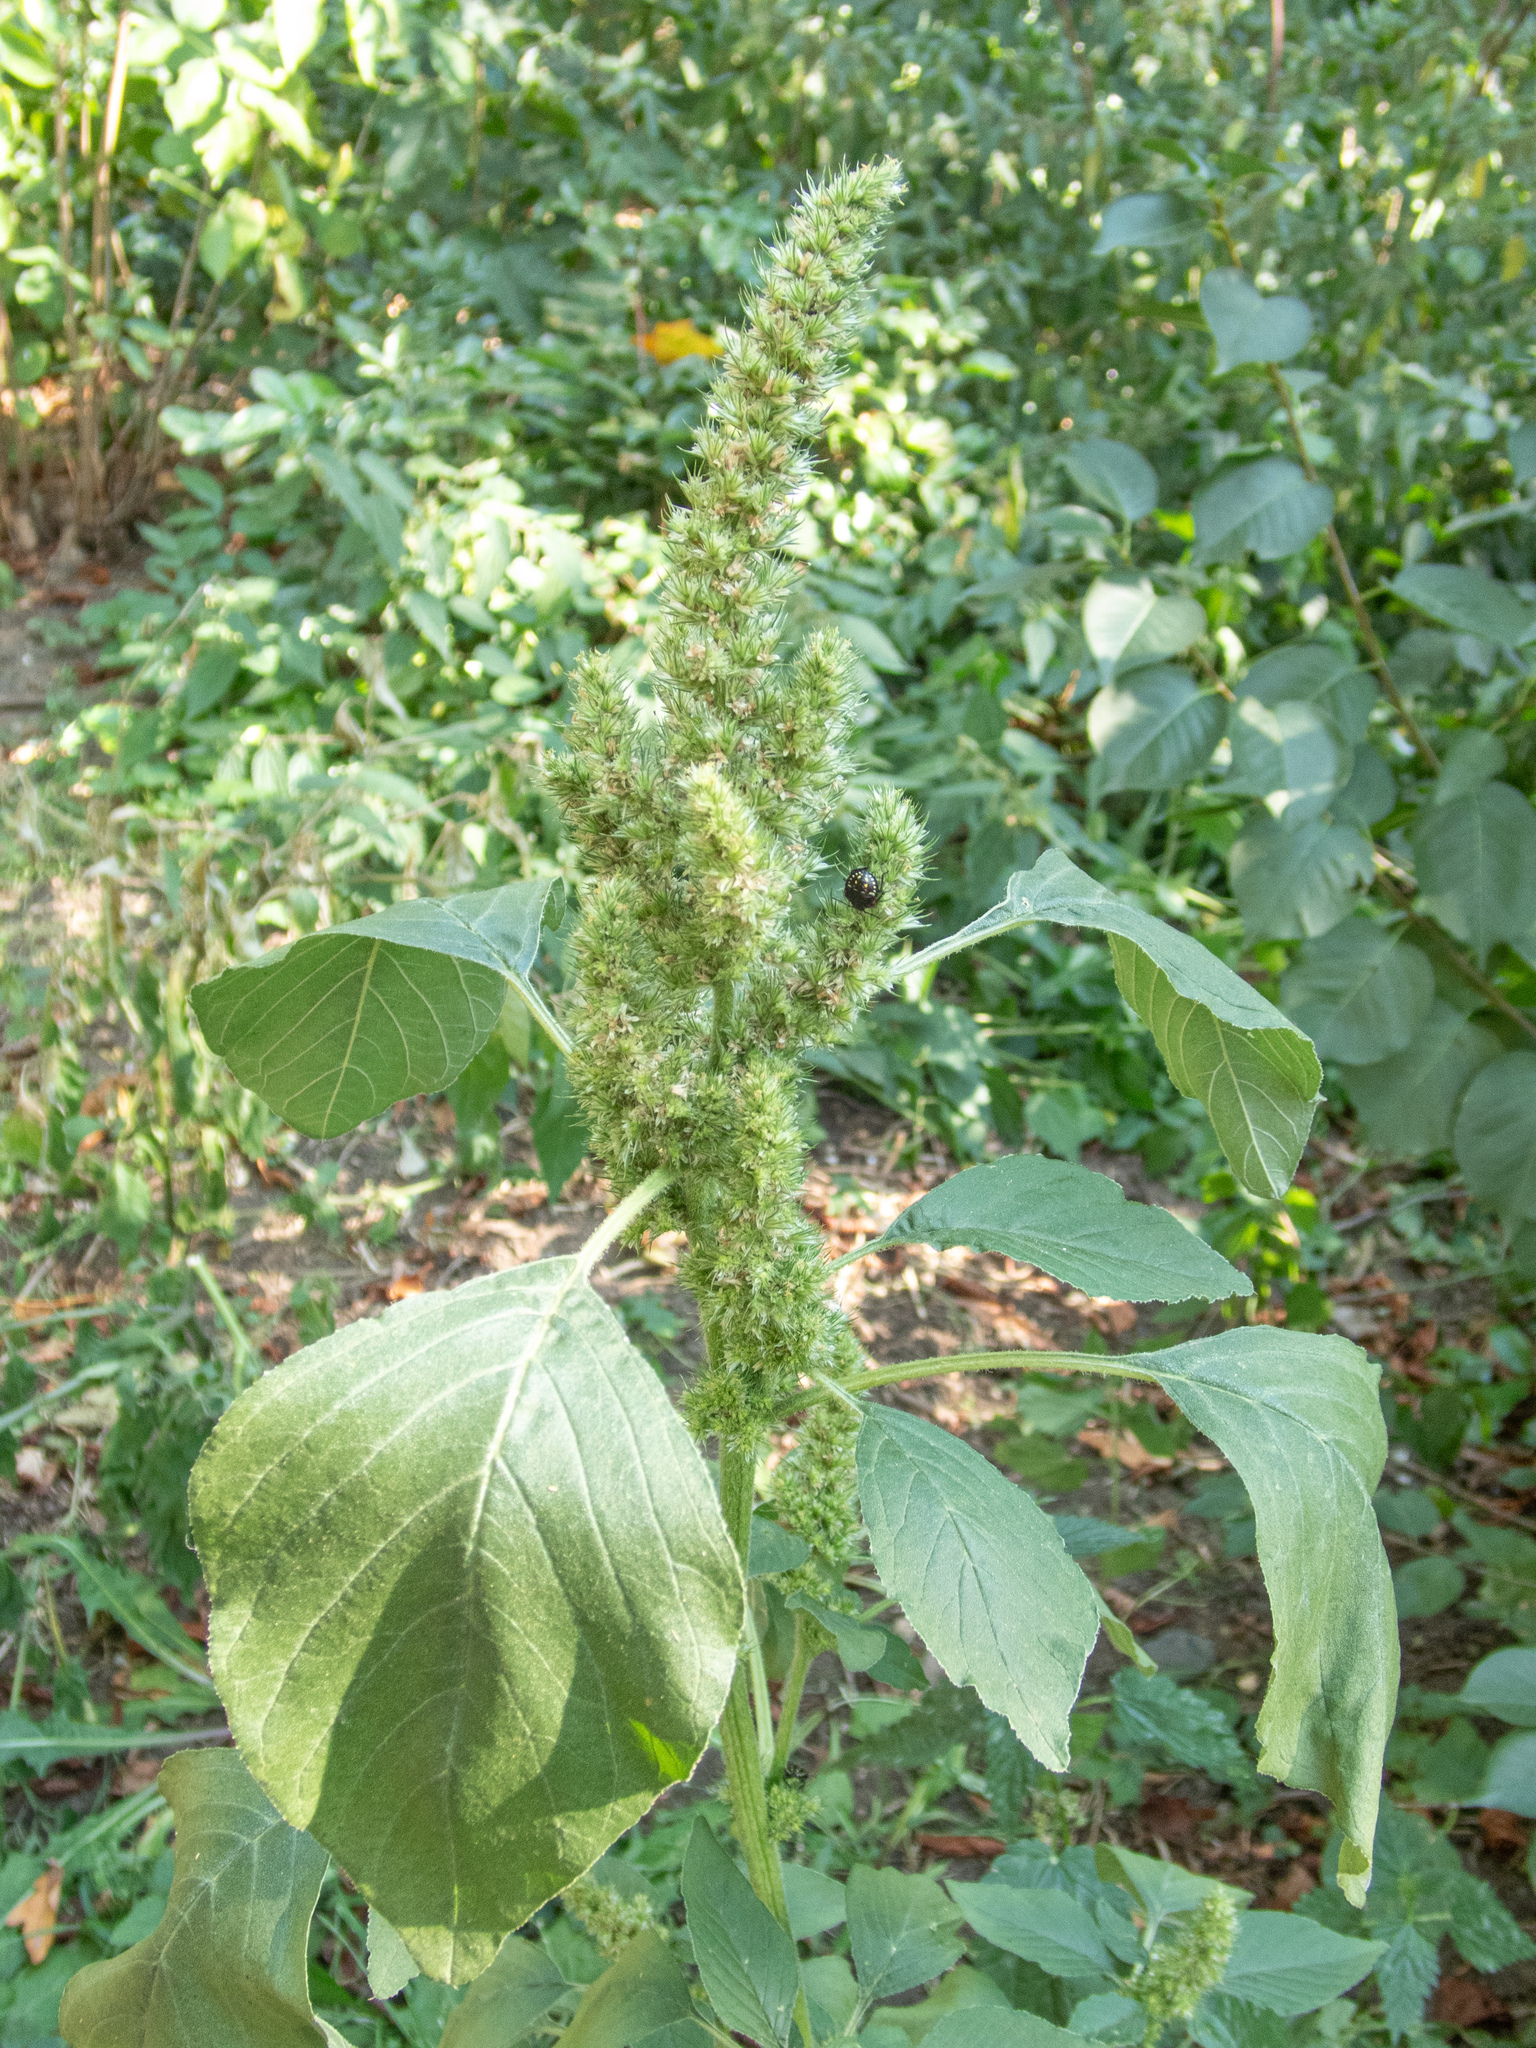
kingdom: Plantae
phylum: Tracheophyta
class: Magnoliopsida
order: Caryophyllales
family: Amaranthaceae
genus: Amaranthus
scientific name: Amaranthus retroflexus
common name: Redroot amaranth
